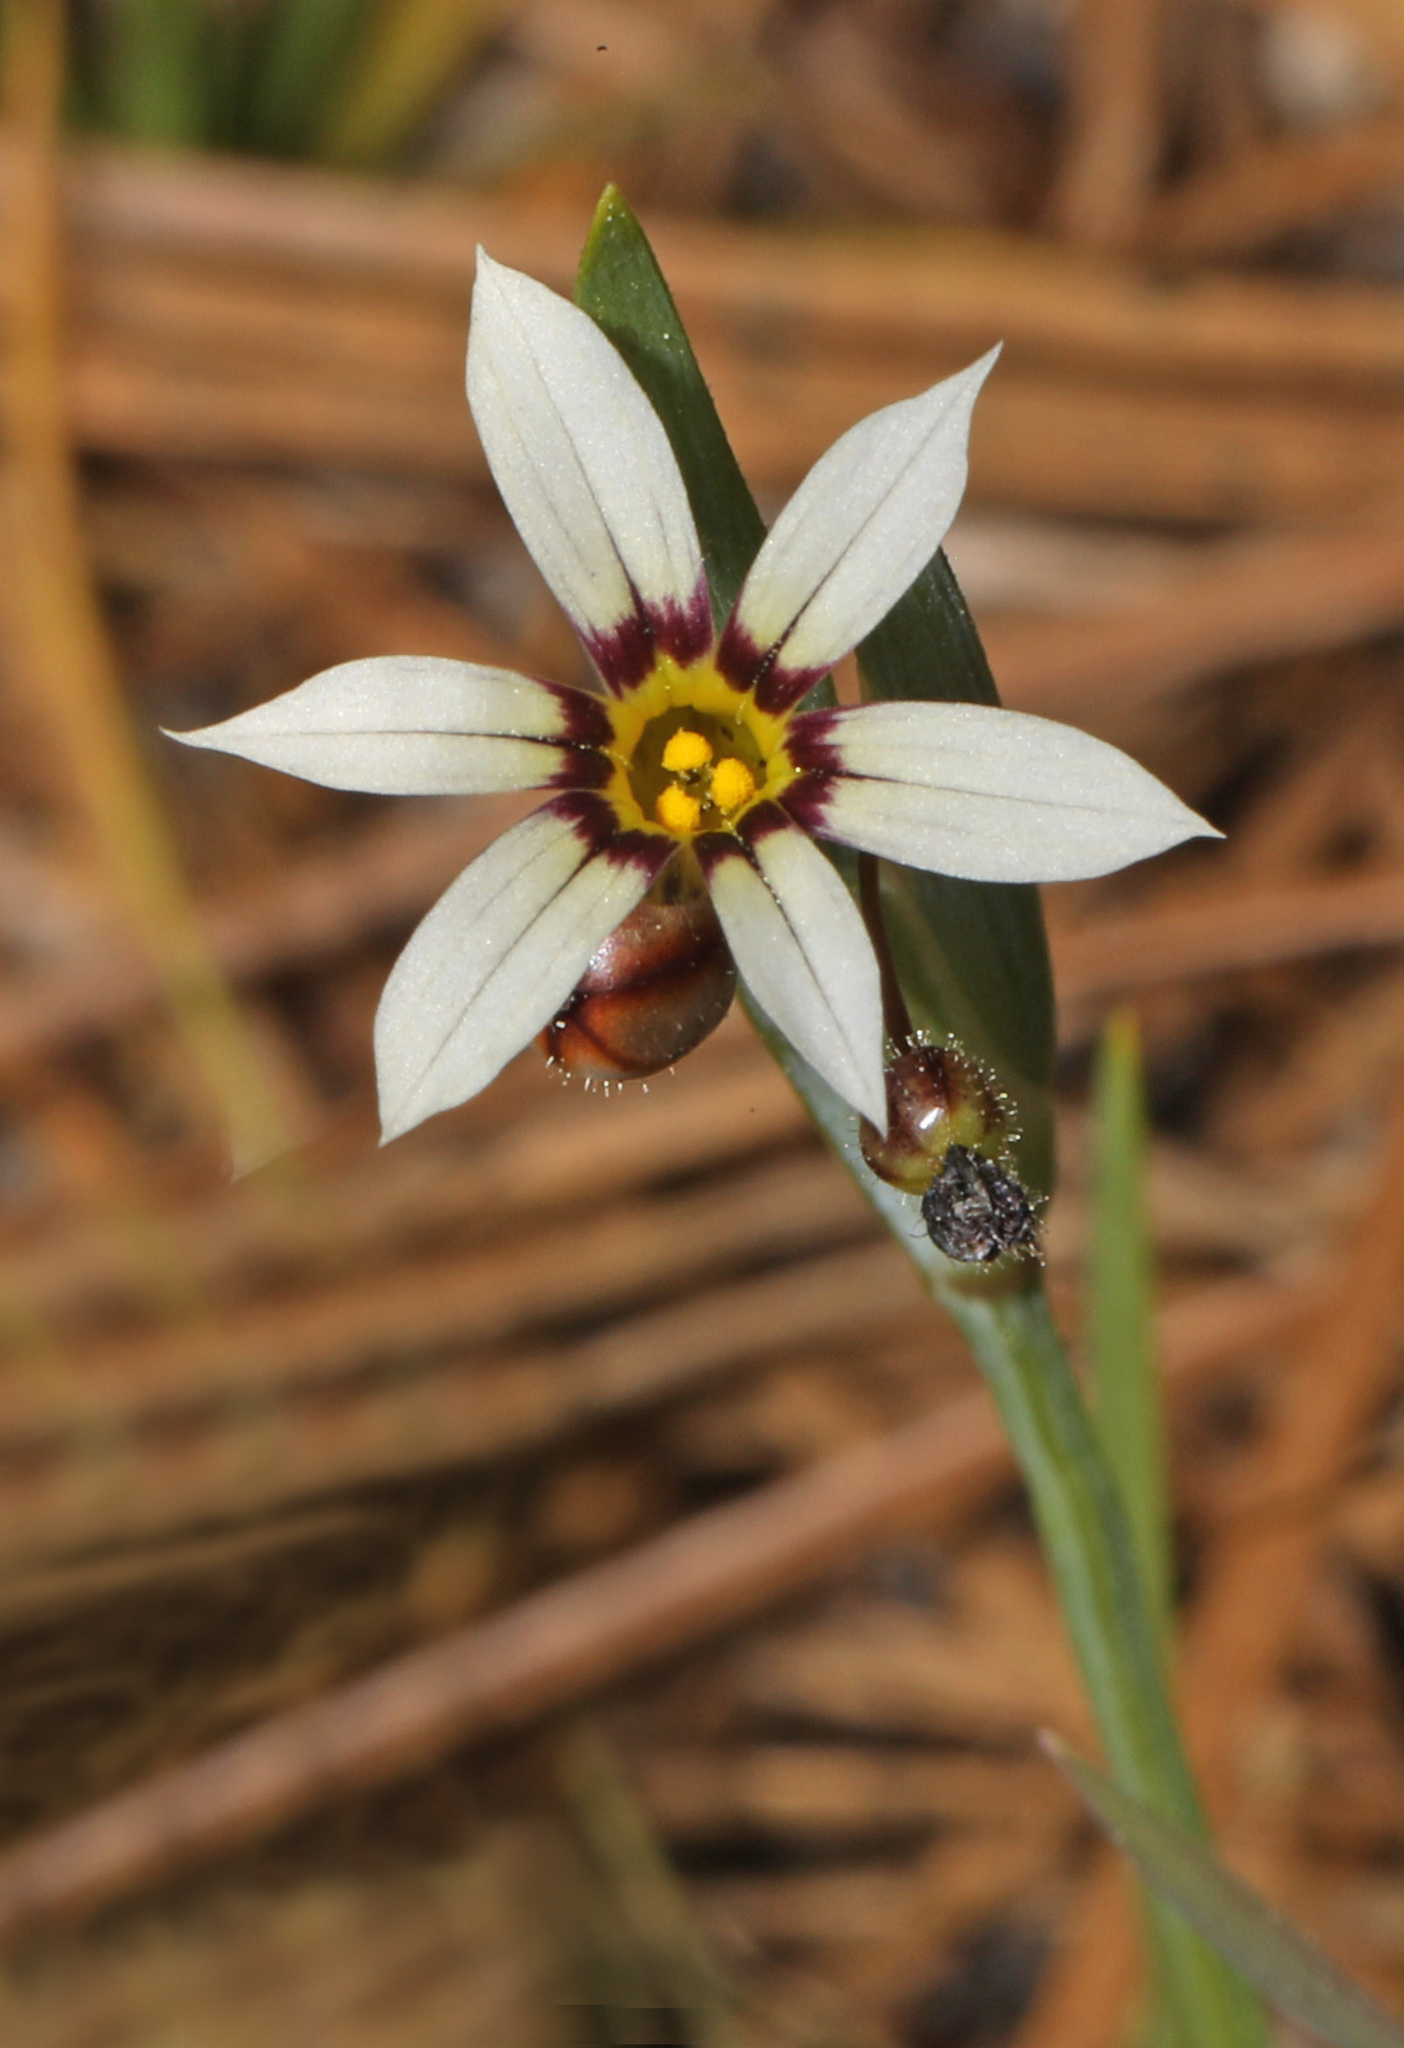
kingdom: Plantae
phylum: Tracheophyta
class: Liliopsida
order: Asparagales
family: Iridaceae
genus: Sisyrinchium
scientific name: Sisyrinchium micranthum
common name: Bermuda pigroot
